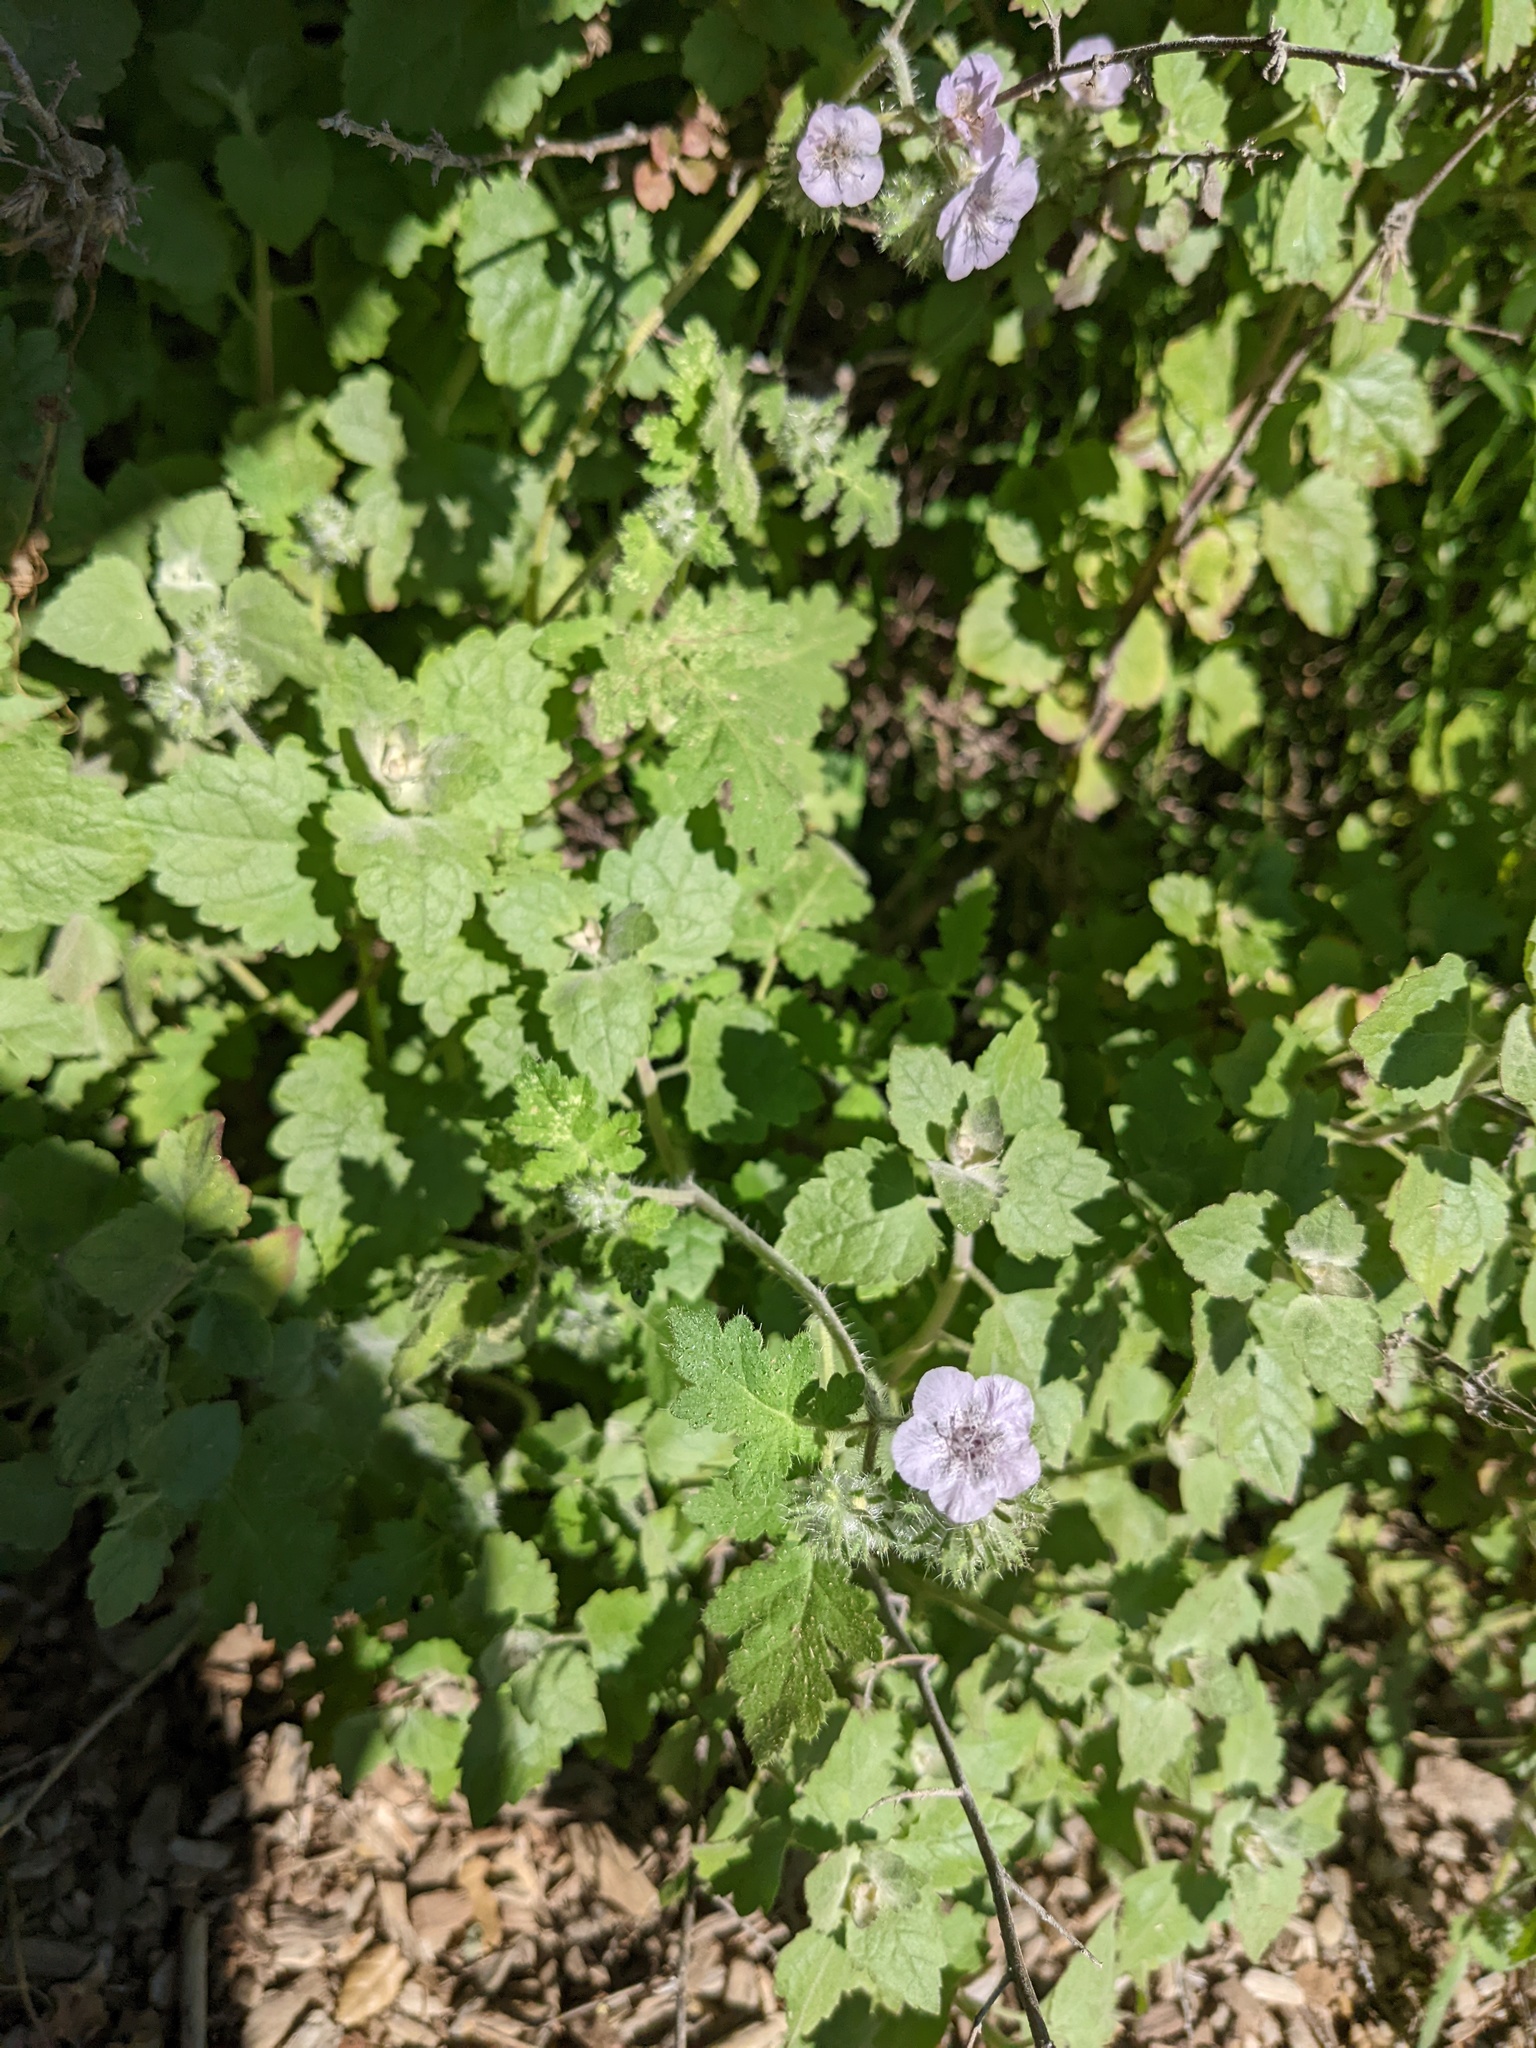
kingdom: Plantae
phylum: Tracheophyta
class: Magnoliopsida
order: Boraginales
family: Hydrophyllaceae
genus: Phacelia
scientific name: Phacelia cicutaria
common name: Caterpillar phacelia
